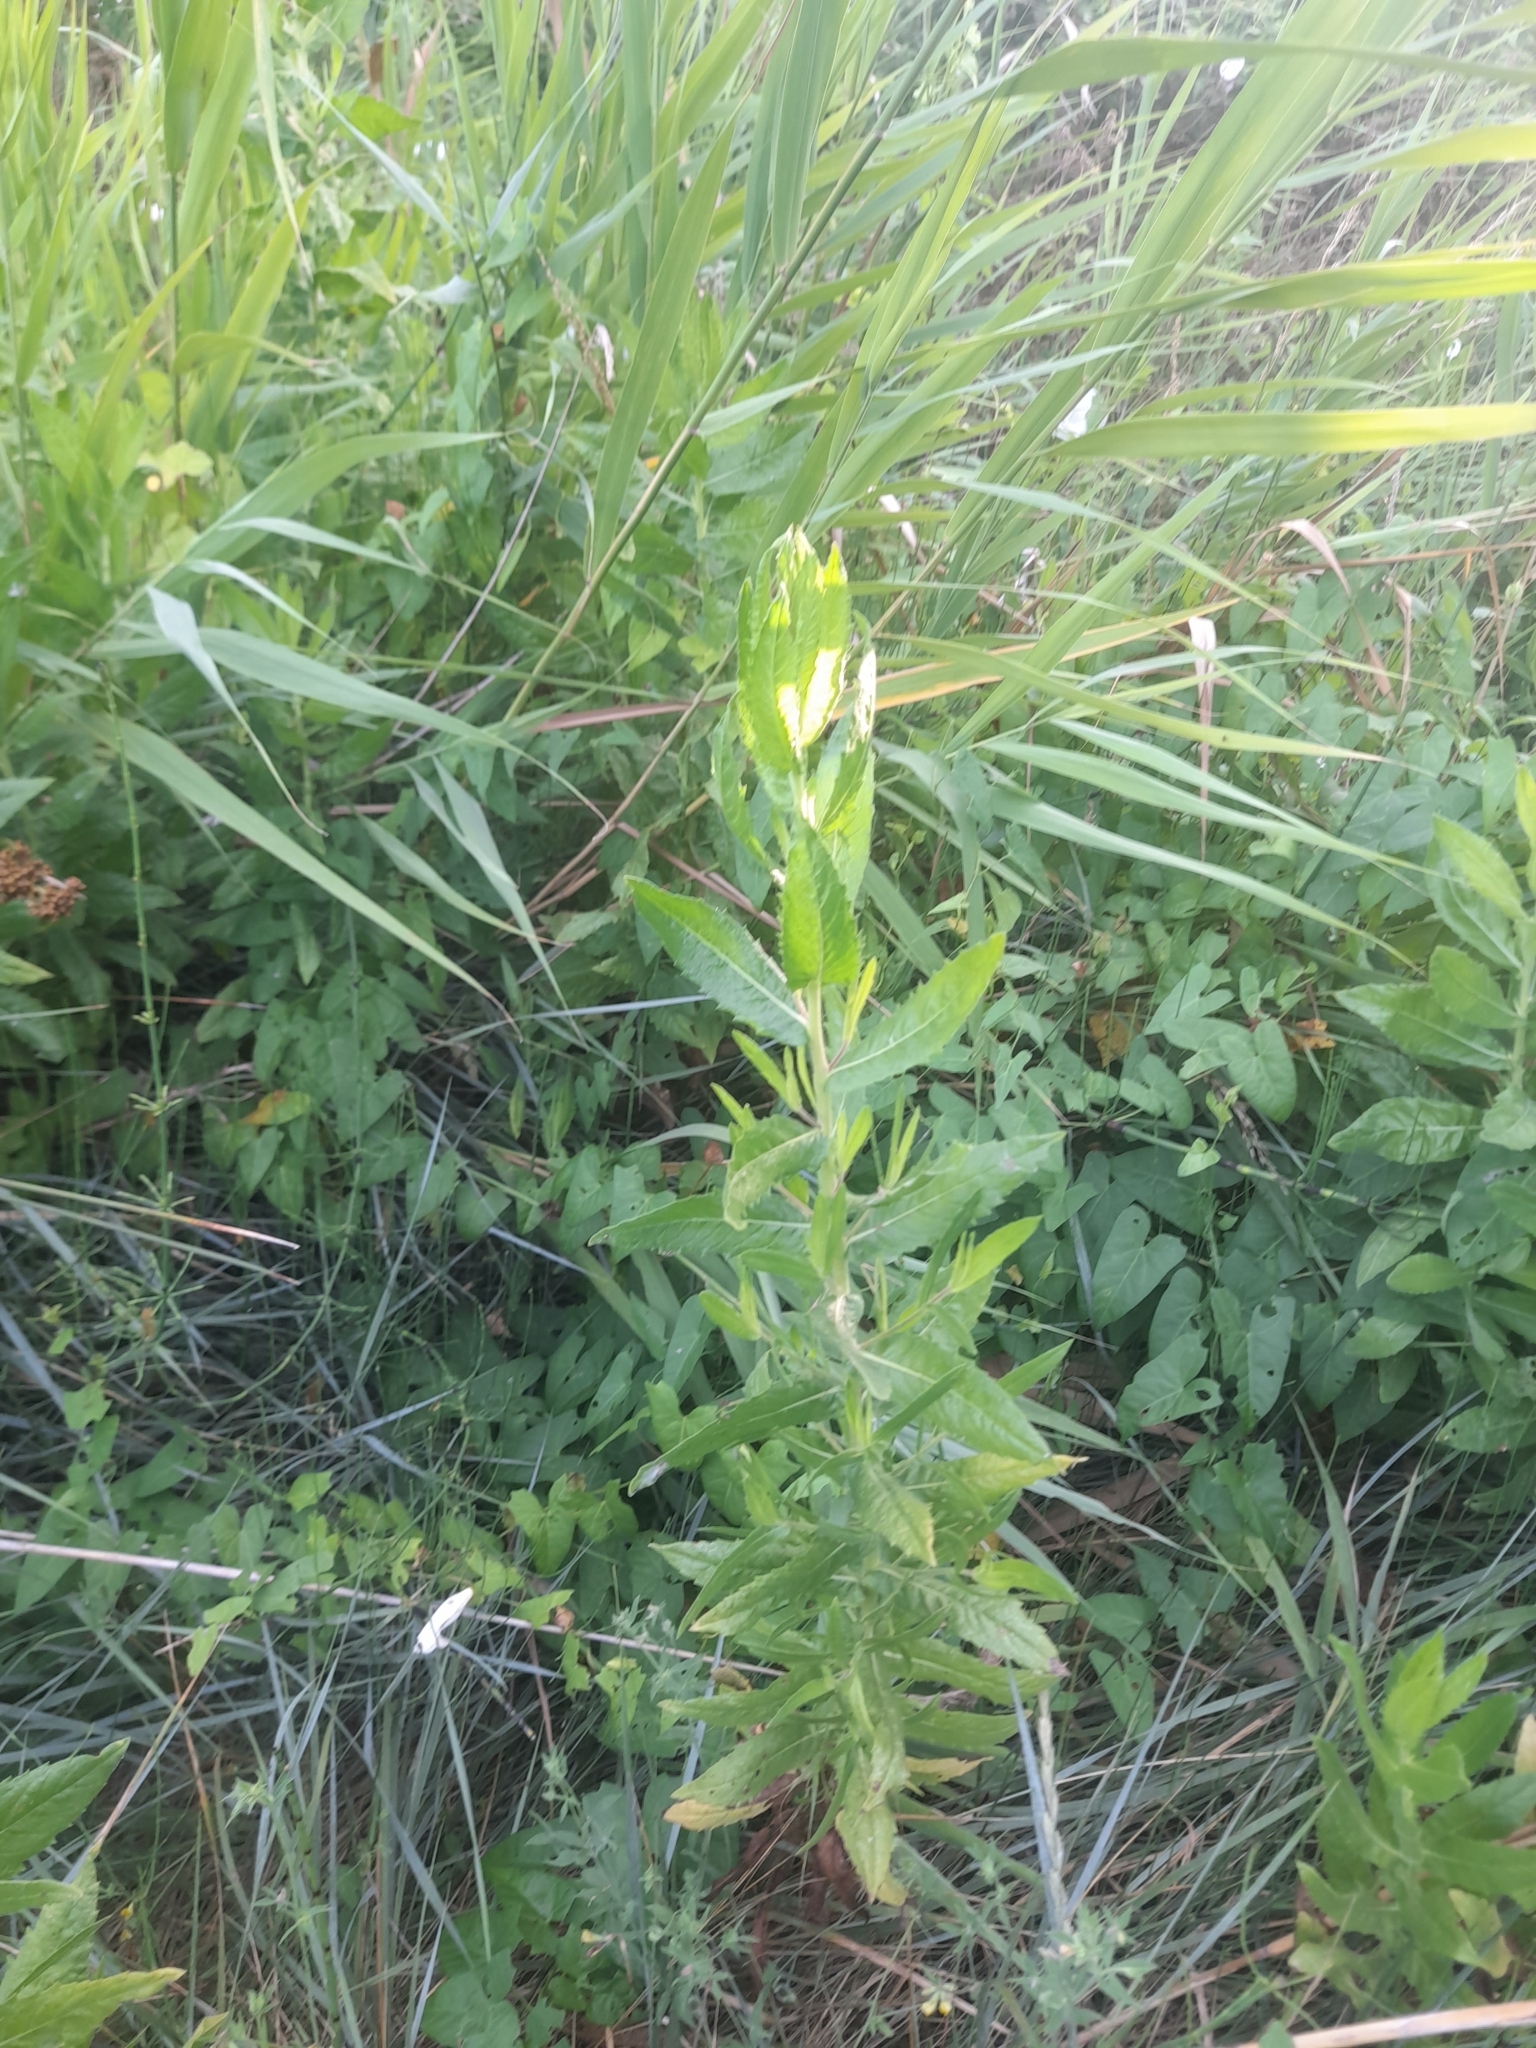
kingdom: Plantae
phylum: Tracheophyta
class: Magnoliopsida
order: Asterales
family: Asteraceae
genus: Dittrichia
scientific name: Dittrichia viscosa
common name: Woody fleabane
